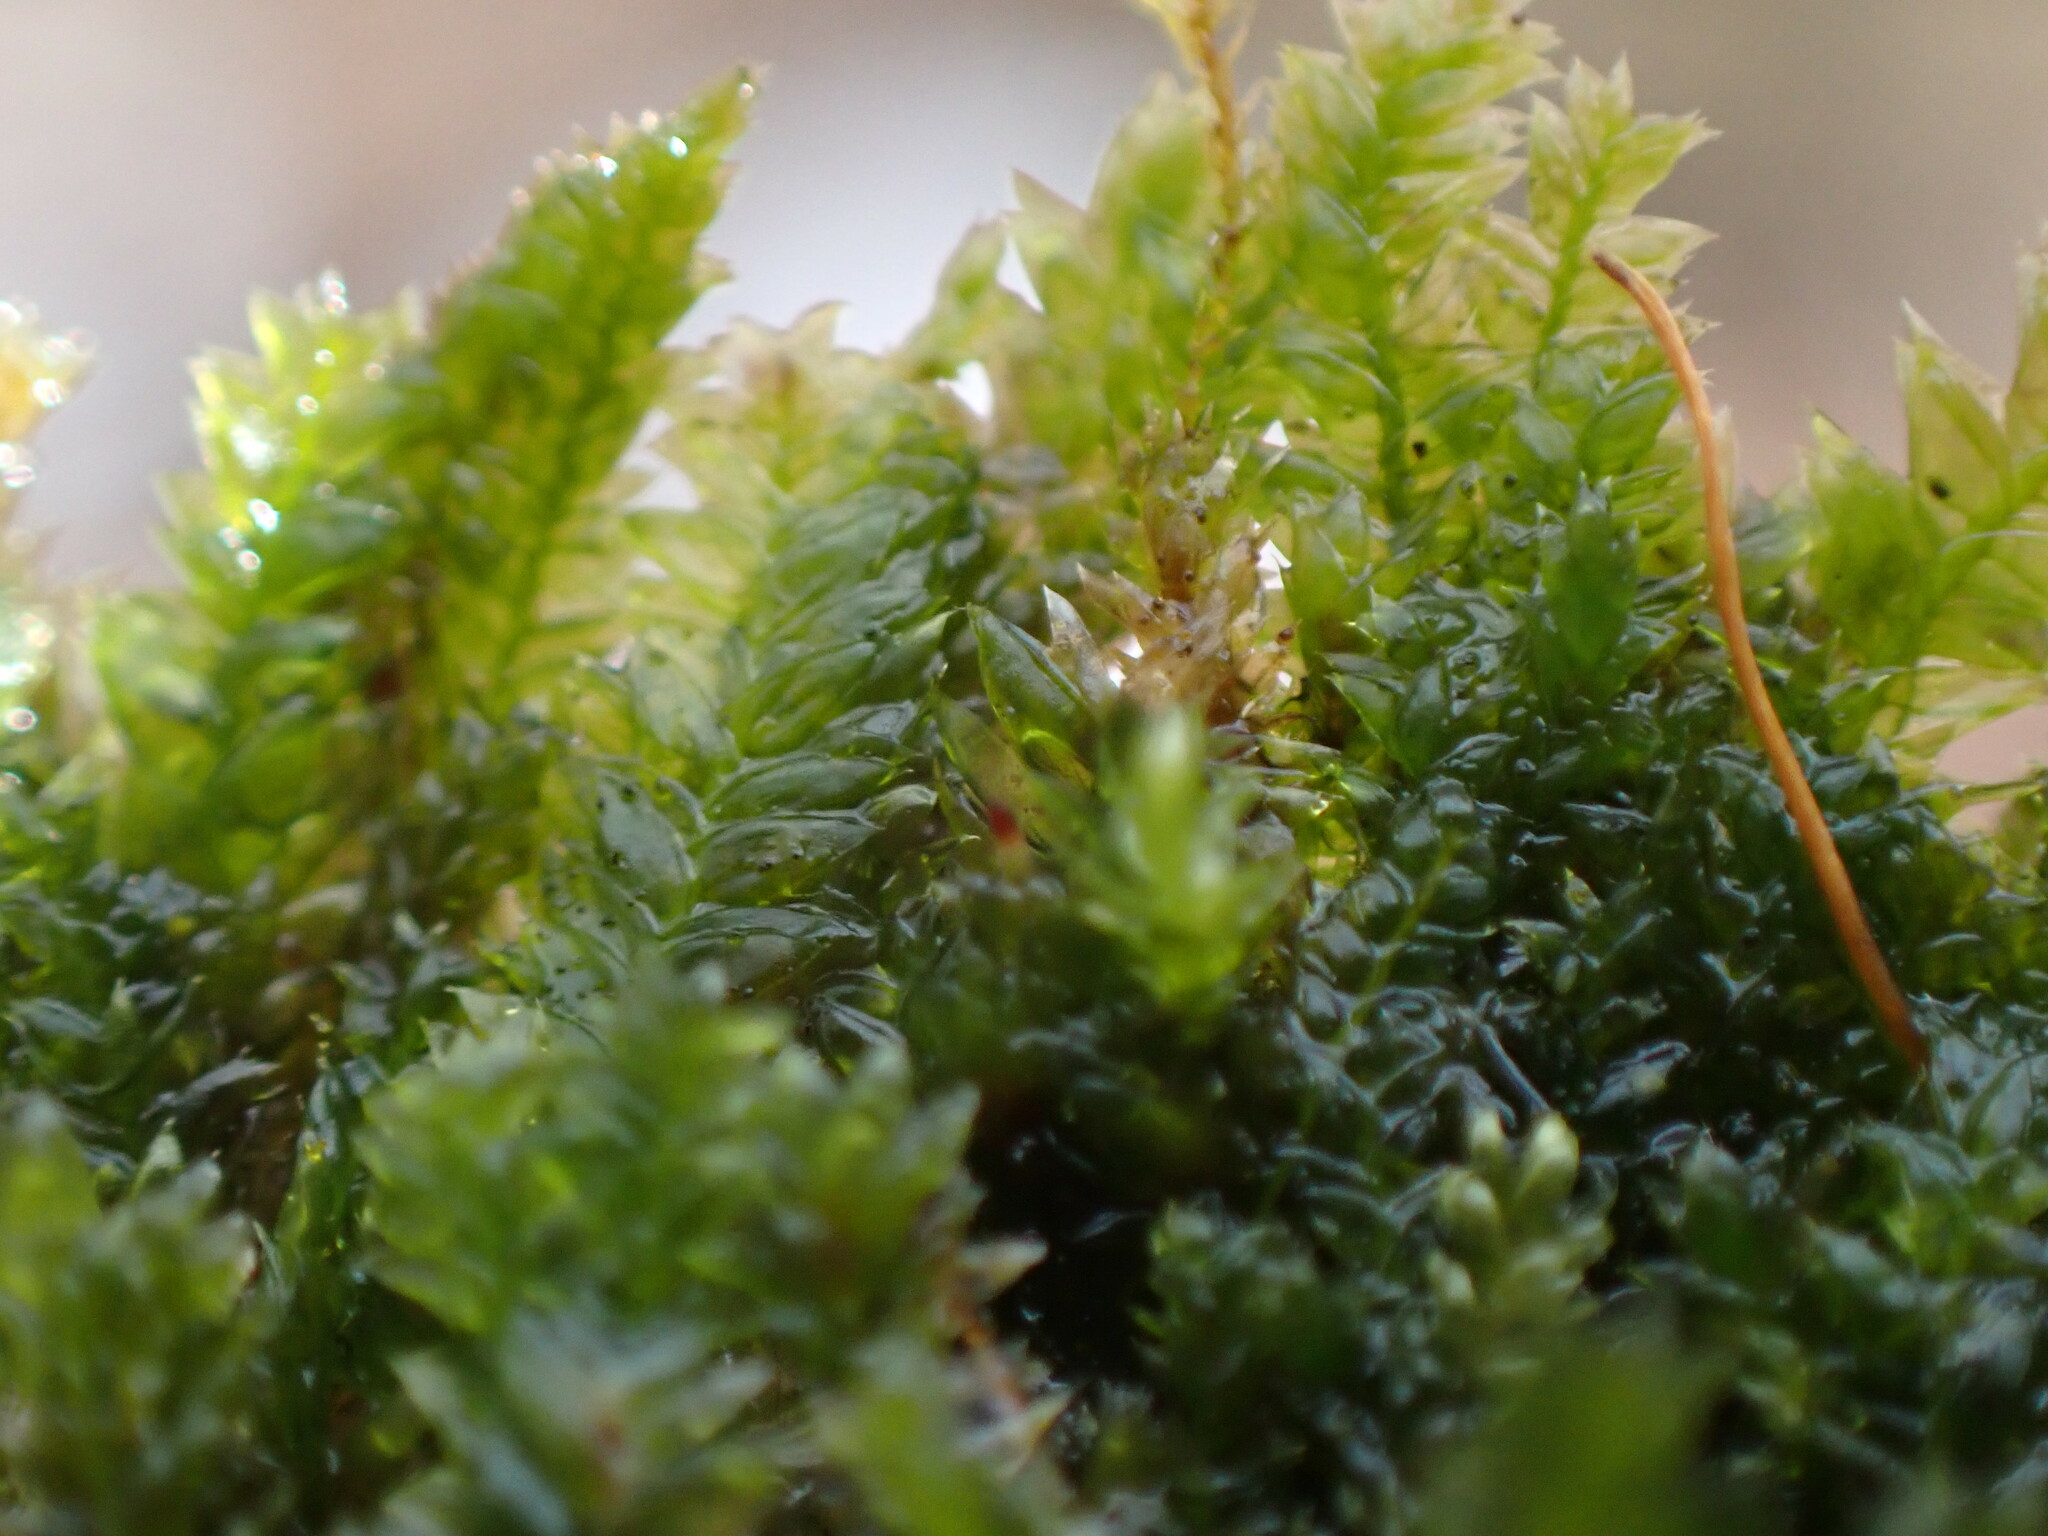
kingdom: Plantae
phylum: Bryophyta
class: Bryopsida
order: Hypnales
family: Plagiotheciaceae
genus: Rectithecium
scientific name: Rectithecium piliferum
